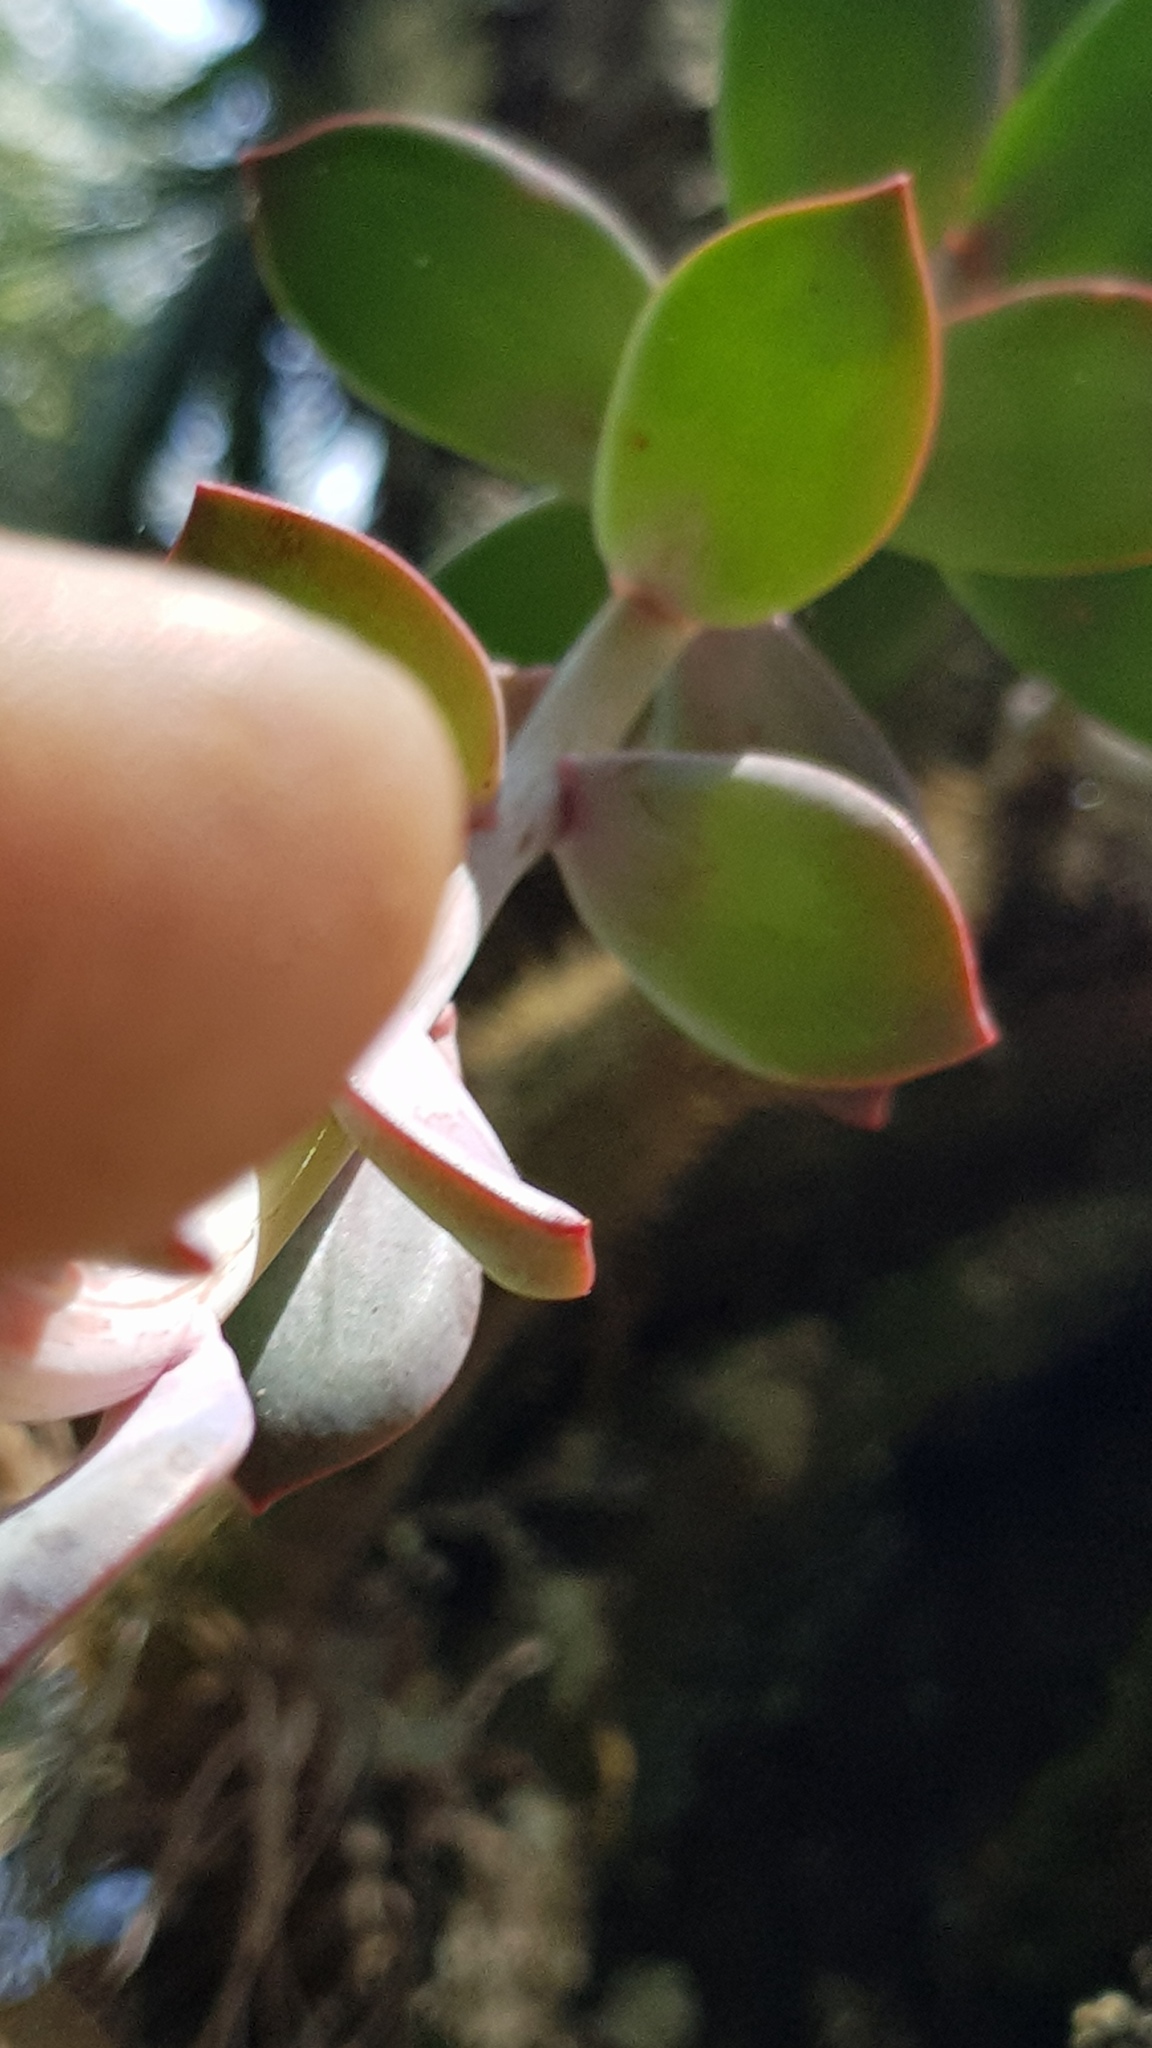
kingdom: Plantae
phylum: Tracheophyta
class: Magnoliopsida
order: Saxifragales
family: Crassulaceae
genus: Echeveria
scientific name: Echeveria rosea
